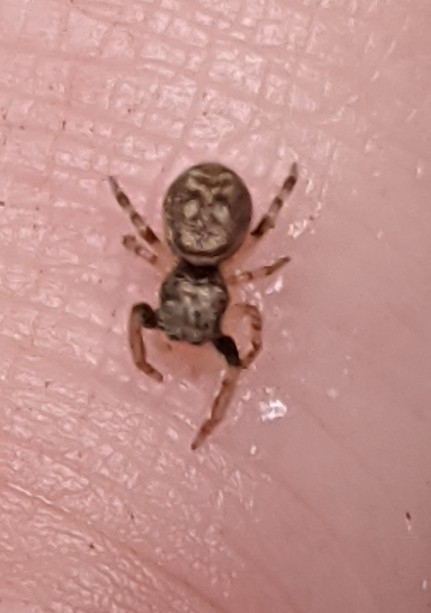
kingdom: Animalia
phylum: Arthropoda
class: Arachnida
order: Araneae
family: Salticidae
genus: Zygoballus
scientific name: Zygoballus rufipes
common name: Jumping spiders
